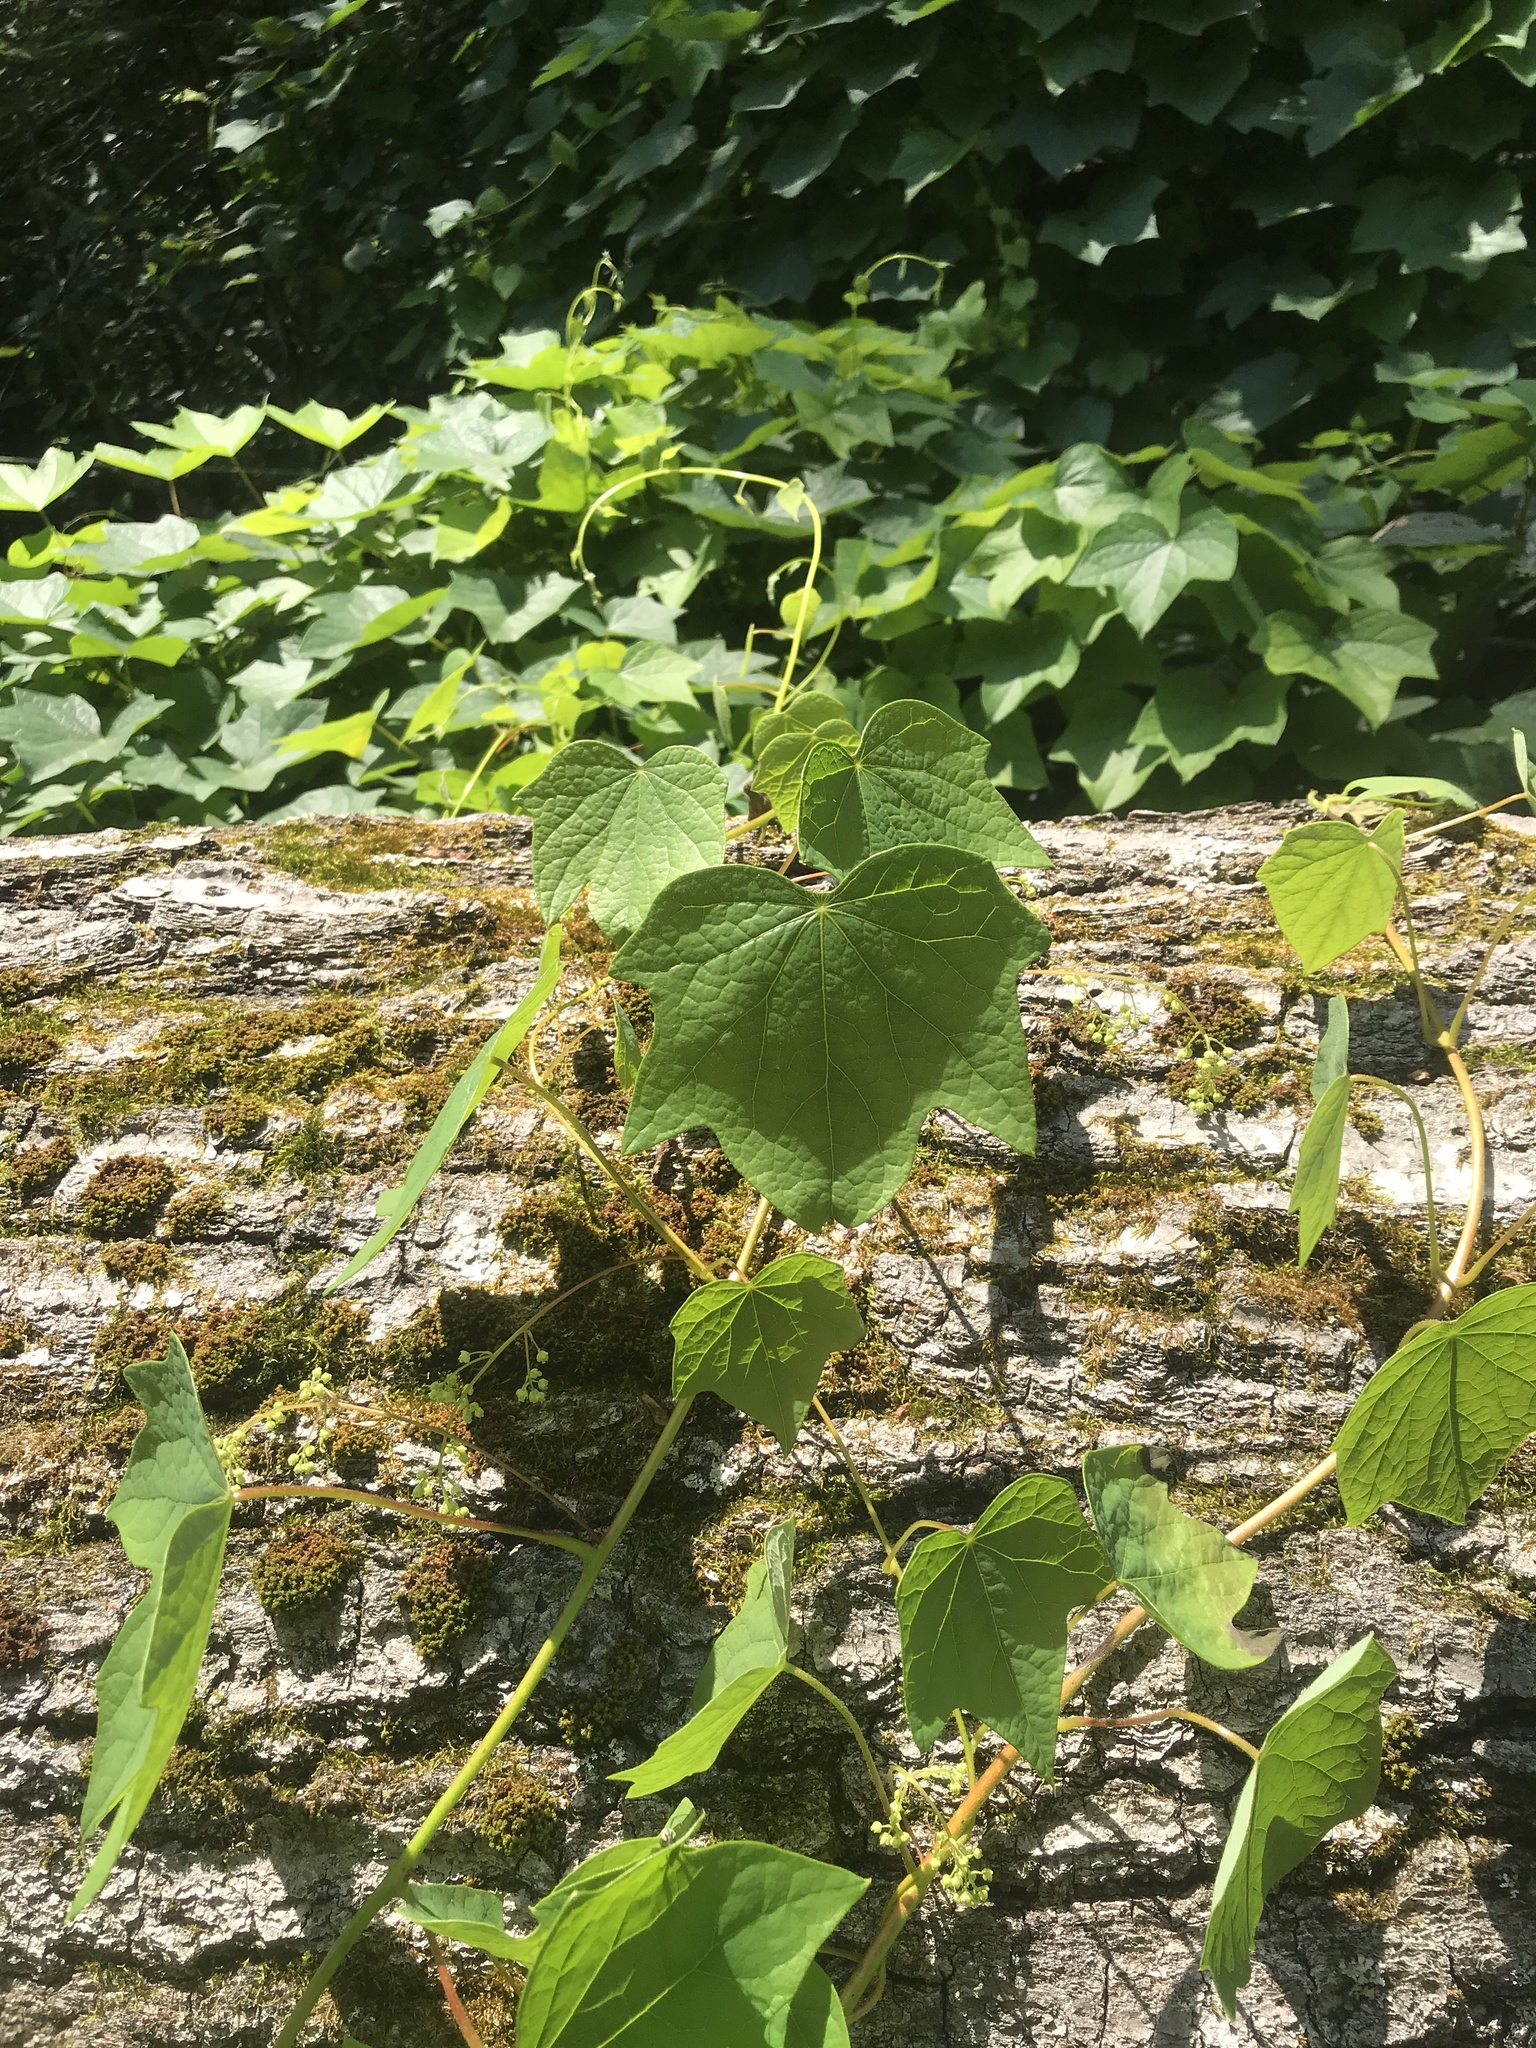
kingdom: Plantae
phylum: Tracheophyta
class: Magnoliopsida
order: Ranunculales
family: Menispermaceae
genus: Menispermum
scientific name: Menispermum canadense
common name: Moonseed
